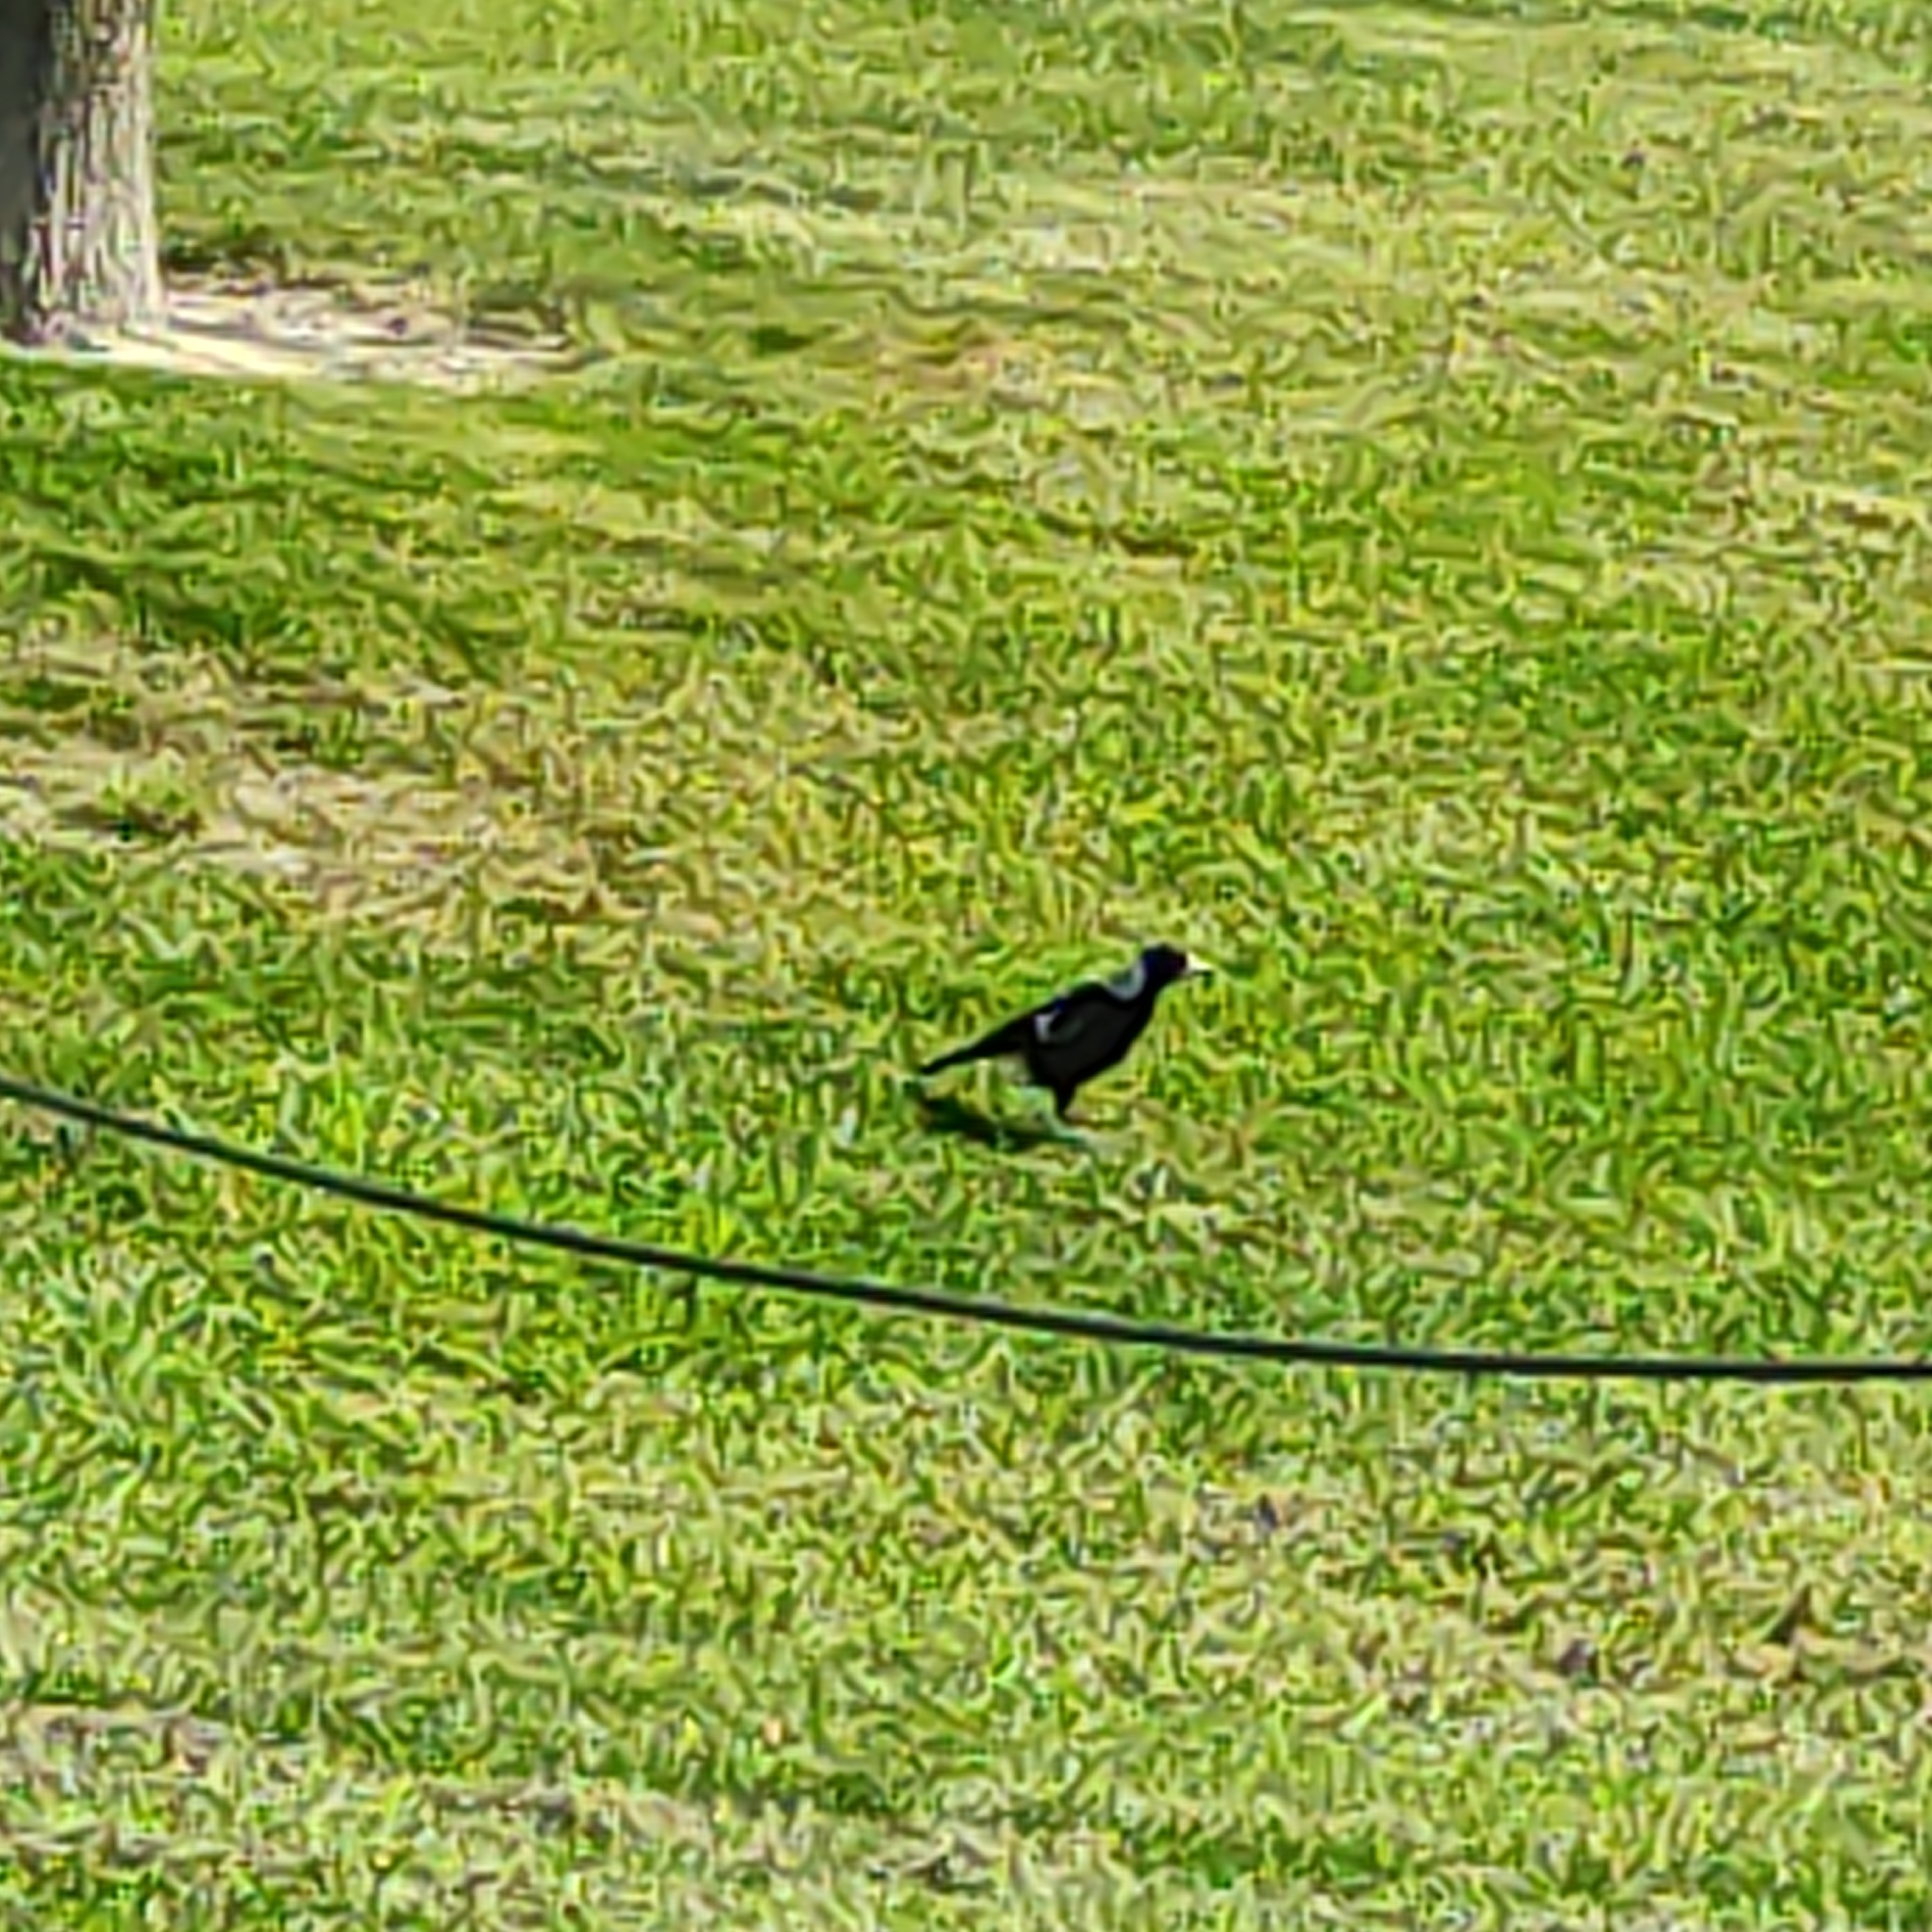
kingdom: Animalia
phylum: Chordata
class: Aves
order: Passeriformes
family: Cracticidae
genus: Gymnorhina
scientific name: Gymnorhina tibicen
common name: Australian magpie
